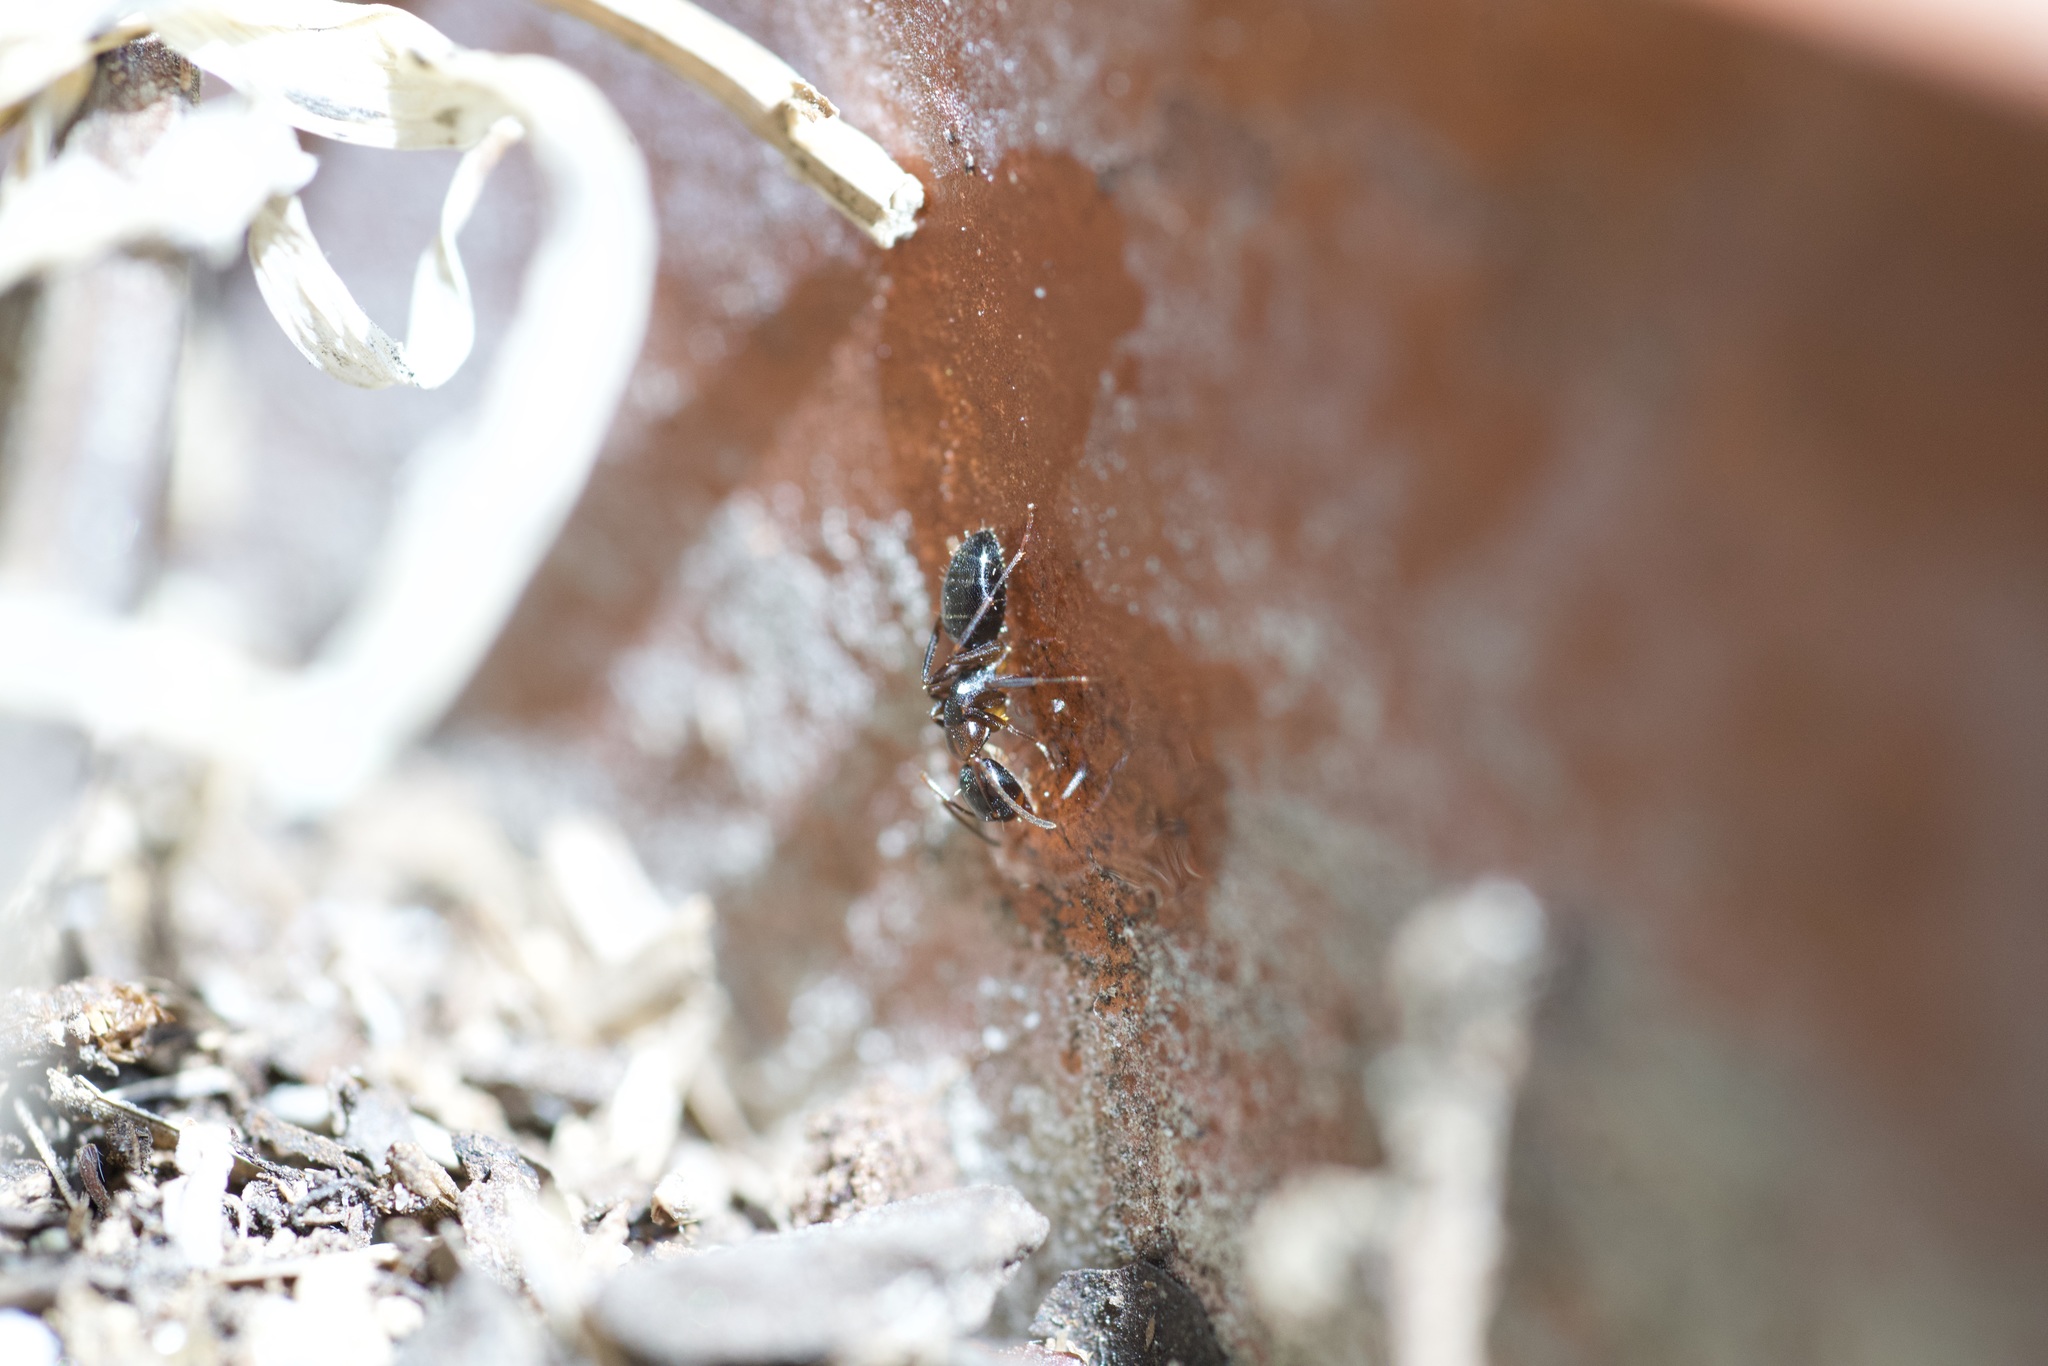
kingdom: Animalia
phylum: Arthropoda
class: Insecta
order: Hymenoptera
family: Formicidae
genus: Camponotus
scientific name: Camponotus nearcticus
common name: Smaller carpenter ant
